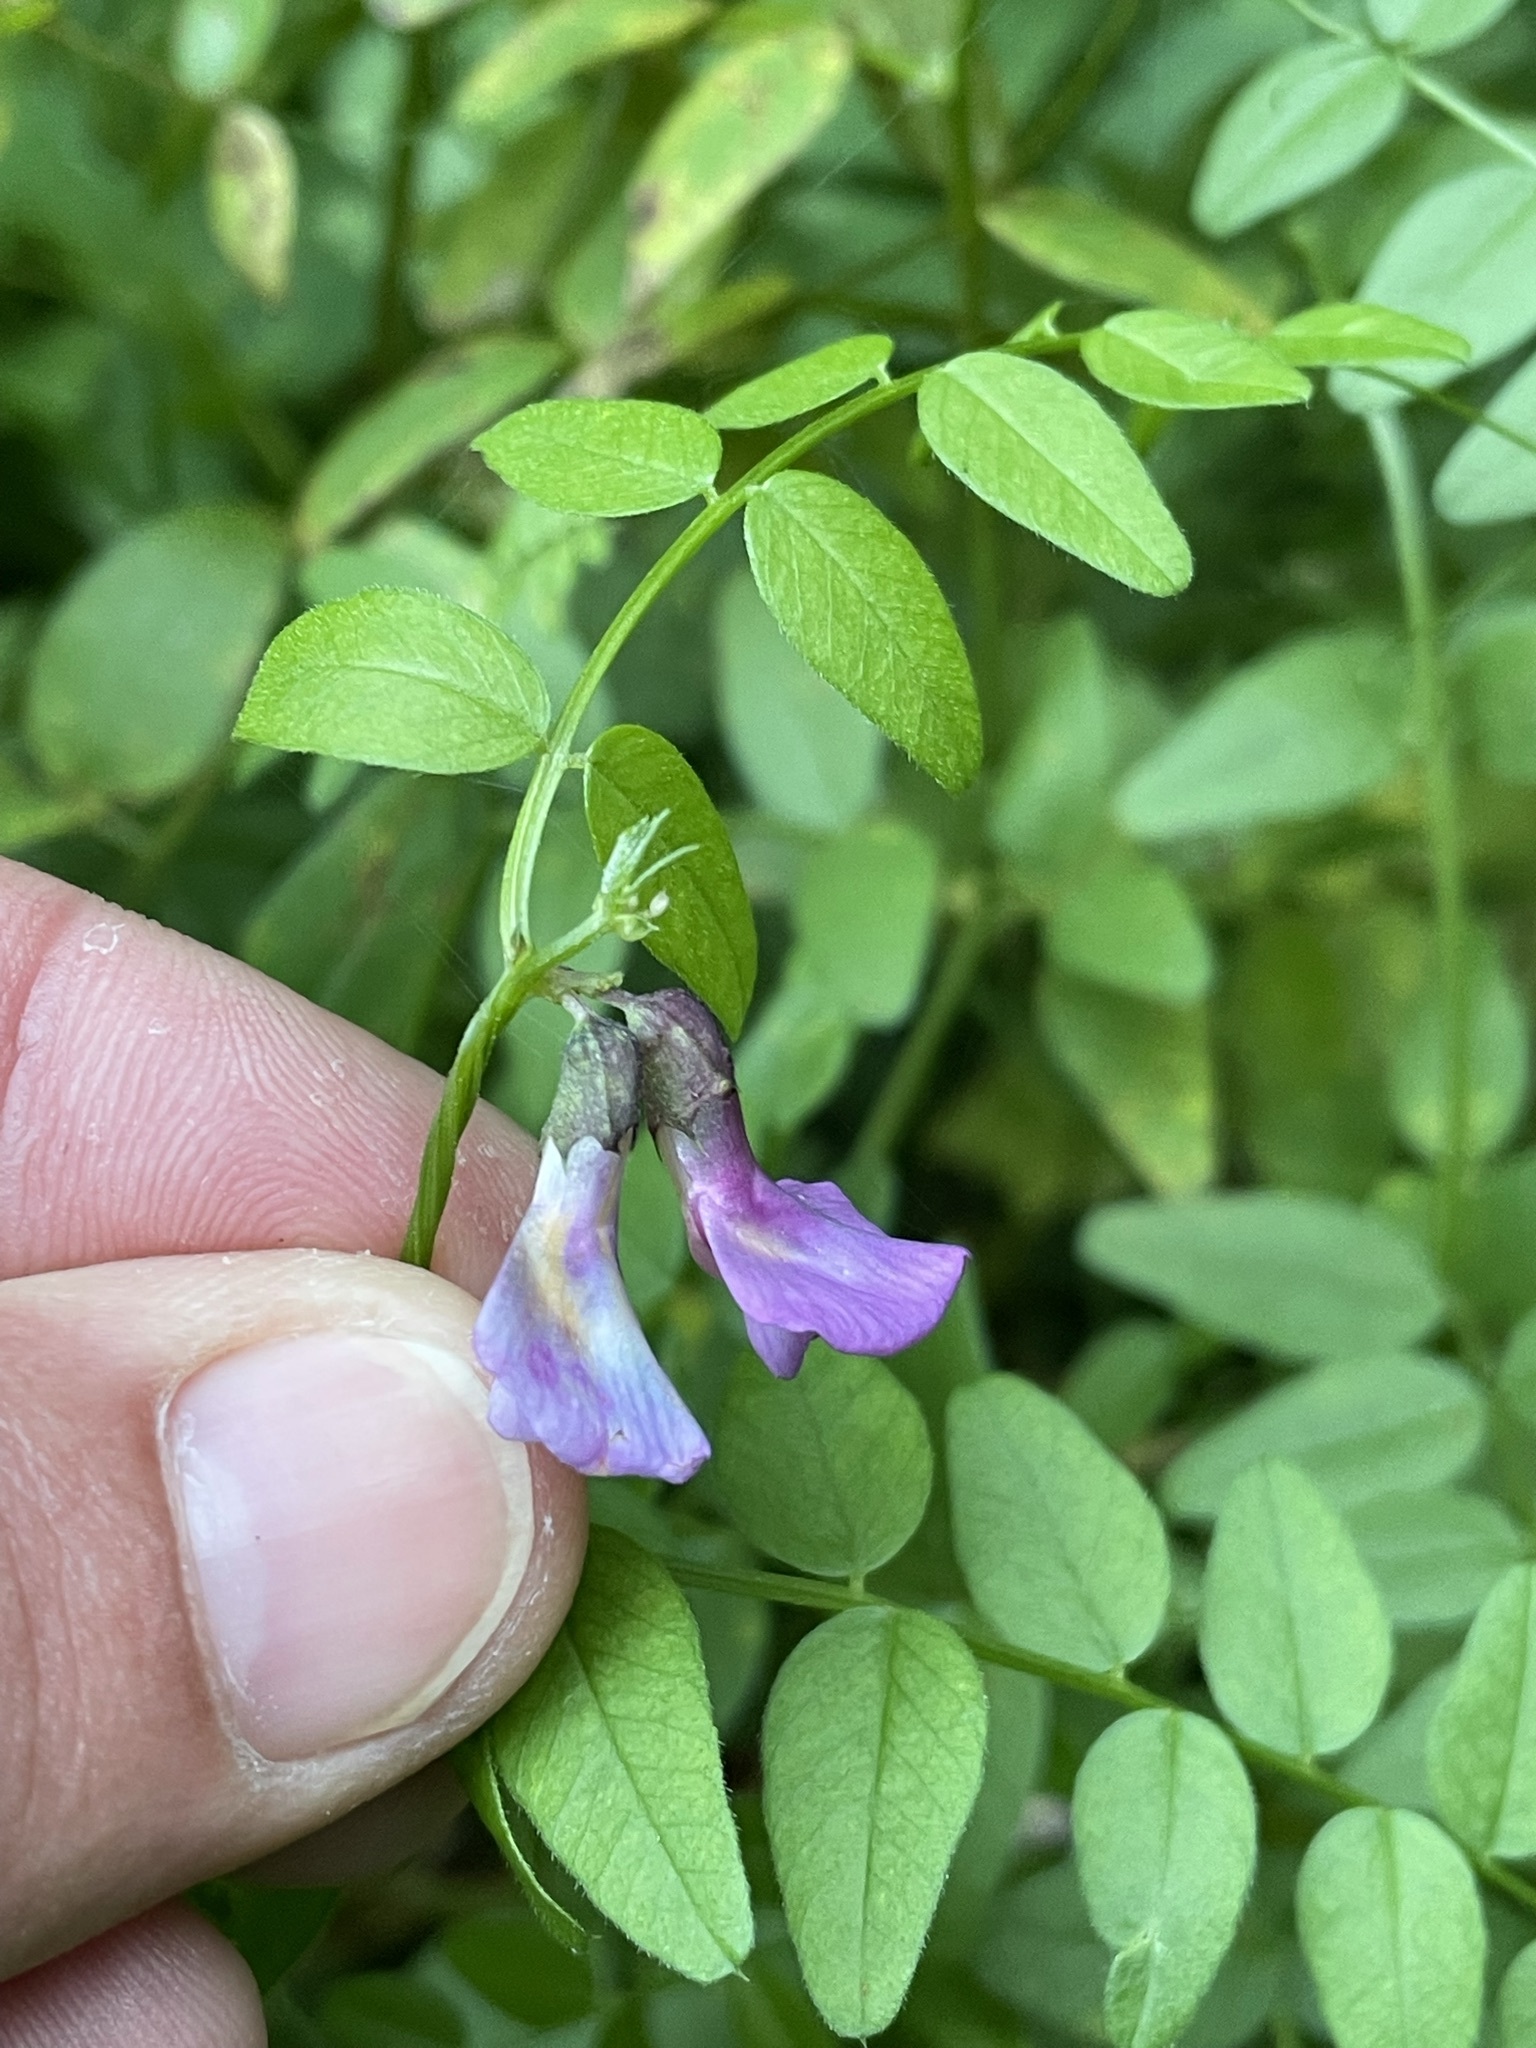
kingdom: Plantae
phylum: Tracheophyta
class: Magnoliopsida
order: Fabales
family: Fabaceae
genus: Vicia
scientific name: Vicia sepium
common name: Bush vetch
